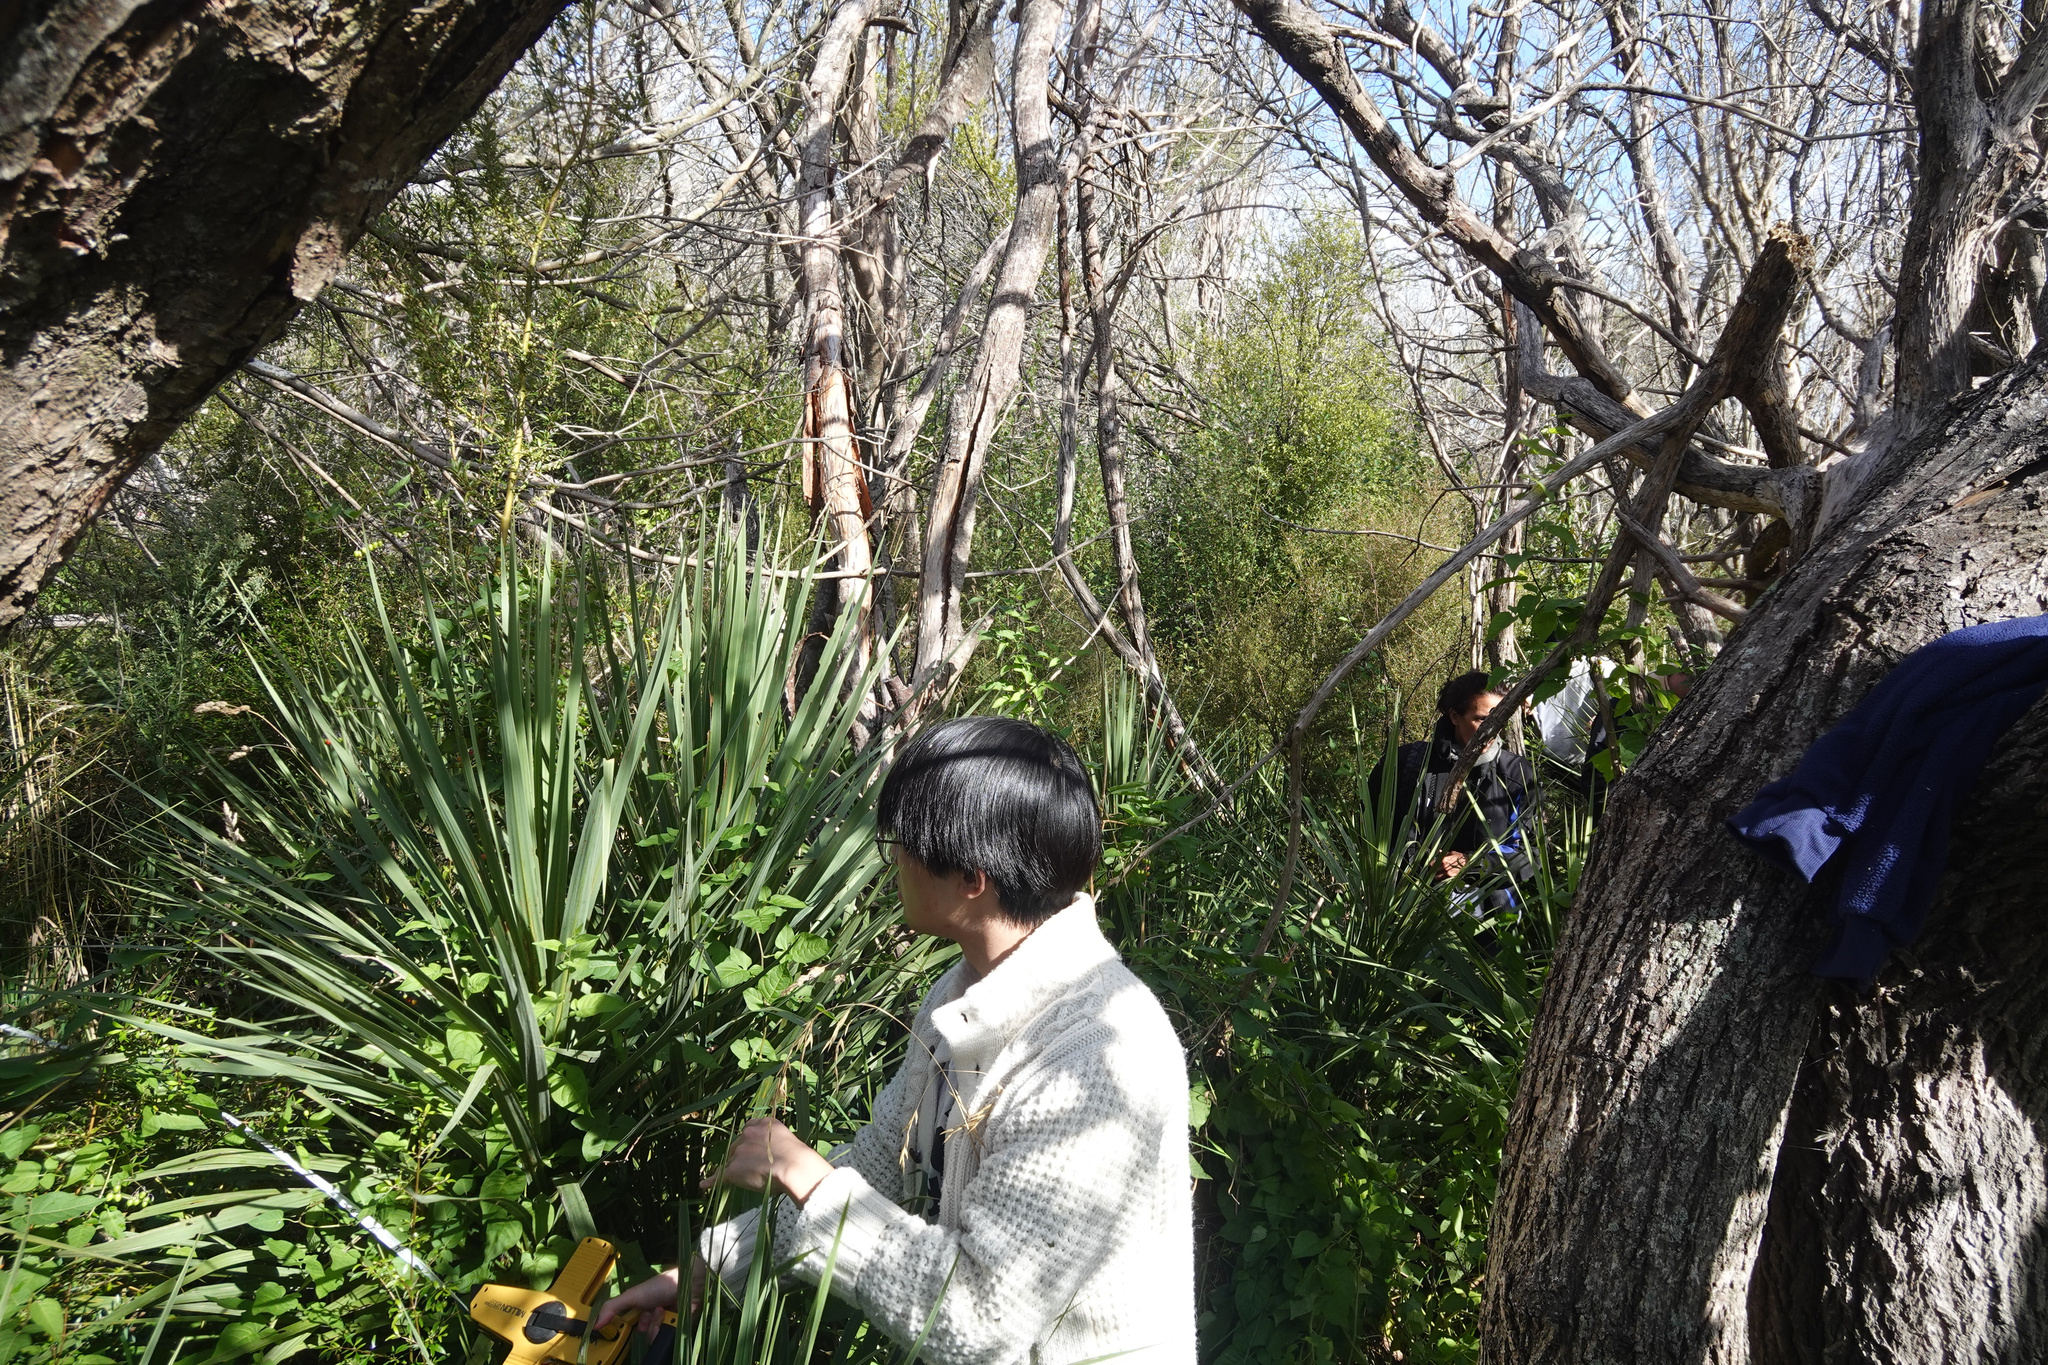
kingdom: Plantae
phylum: Tracheophyta
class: Liliopsida
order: Asparagales
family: Asparagaceae
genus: Cordyline
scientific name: Cordyline australis
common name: Cabbage-palm
